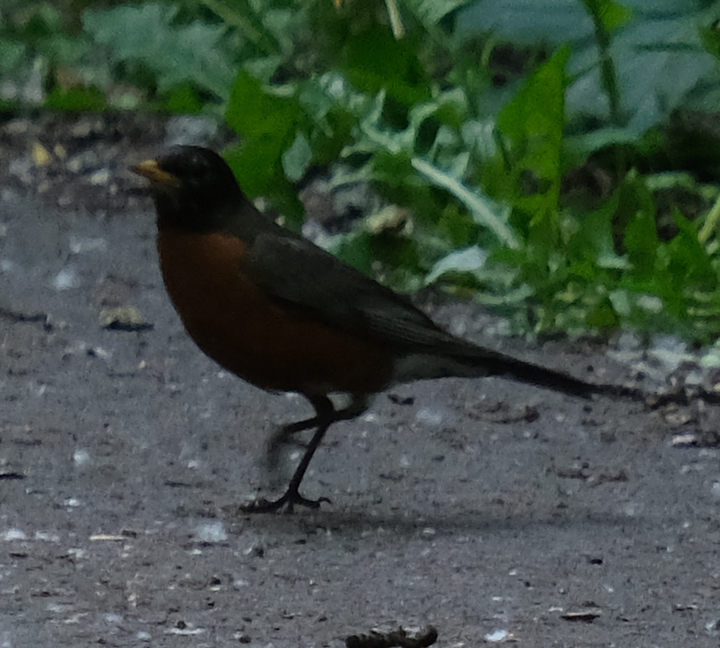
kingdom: Animalia
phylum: Chordata
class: Aves
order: Passeriformes
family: Turdidae
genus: Turdus
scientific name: Turdus migratorius
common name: American robin
